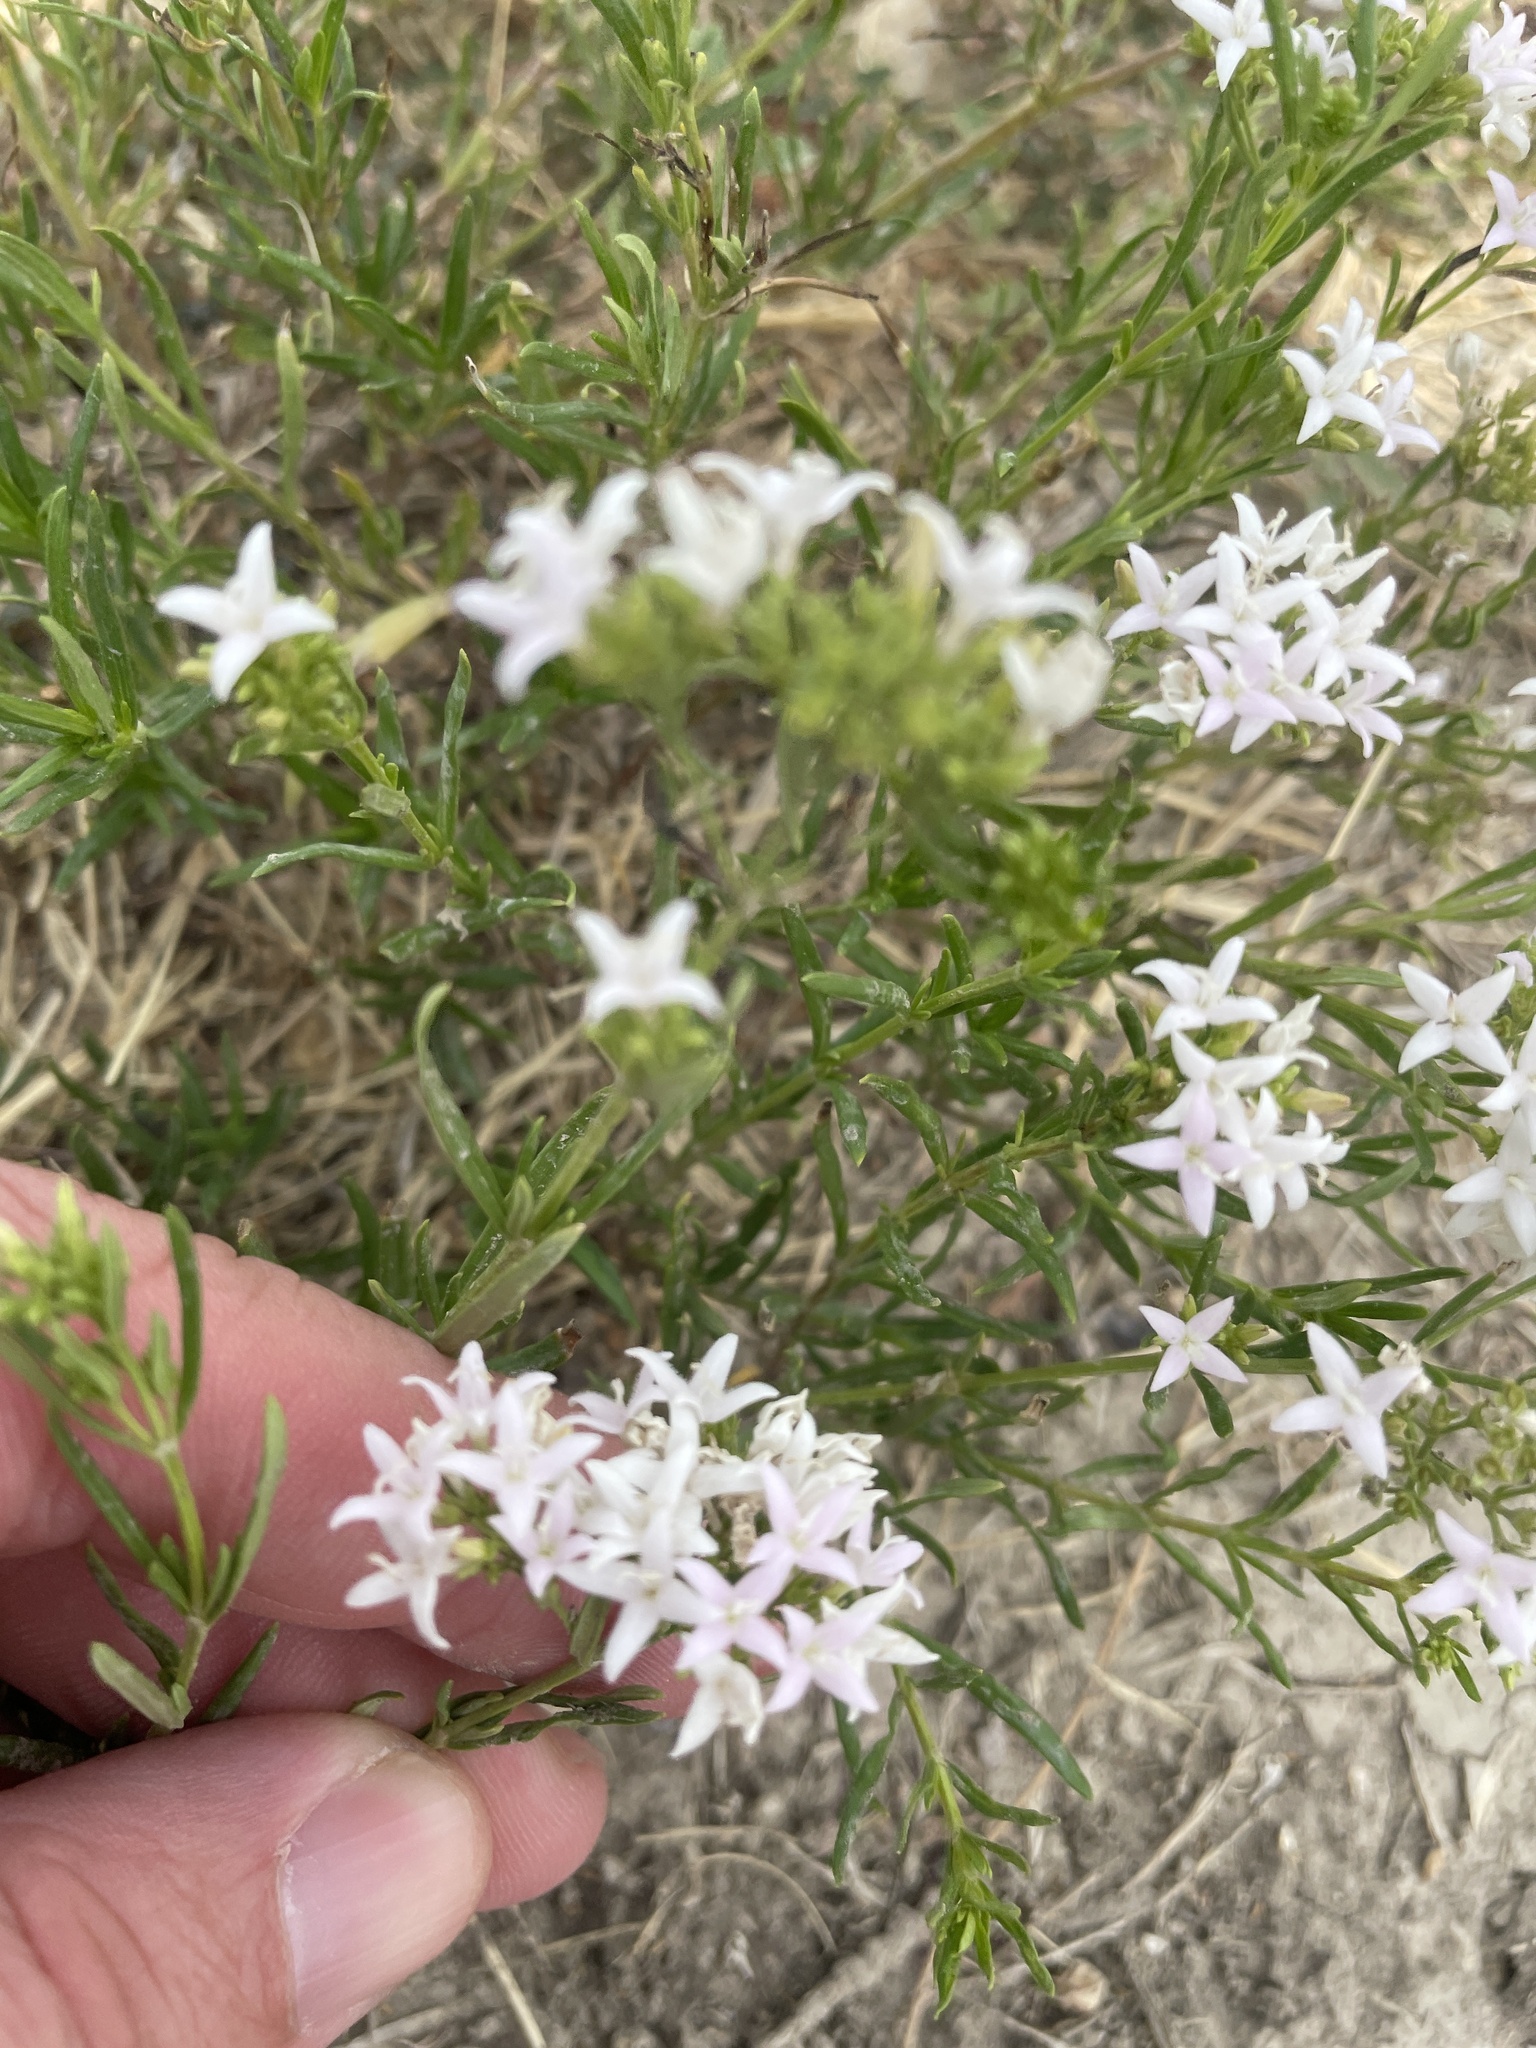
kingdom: Plantae
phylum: Tracheophyta
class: Magnoliopsida
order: Gentianales
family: Rubiaceae
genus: Stenaria
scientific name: Stenaria nigricans
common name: Diamondflowers
